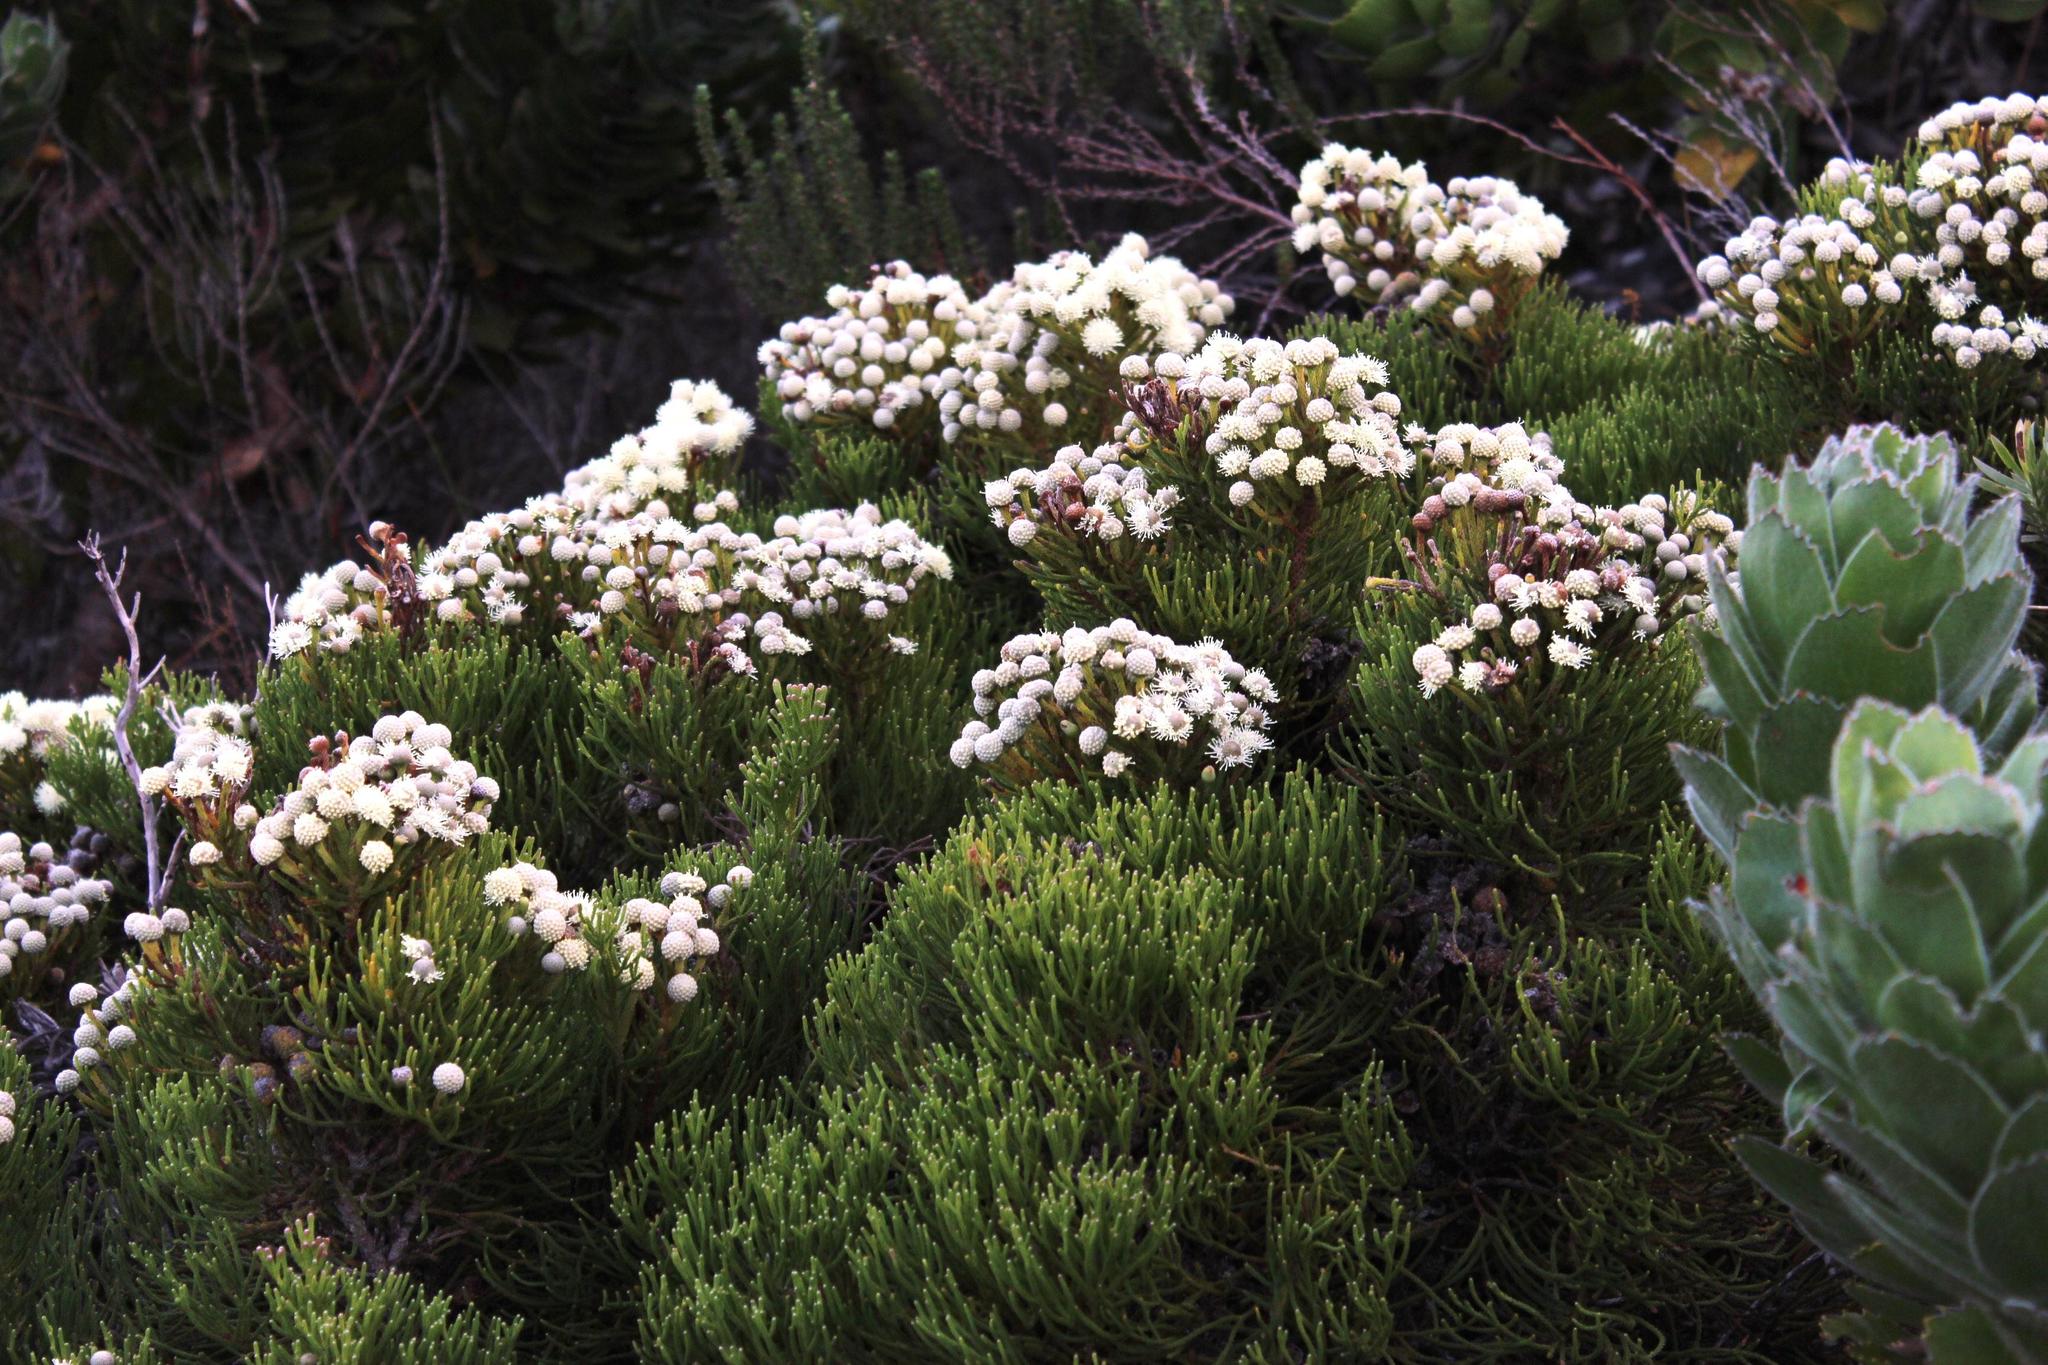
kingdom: Plantae
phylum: Tracheophyta
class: Magnoliopsida
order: Bruniales
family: Bruniaceae
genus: Brunia
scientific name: Brunia noduliflora
